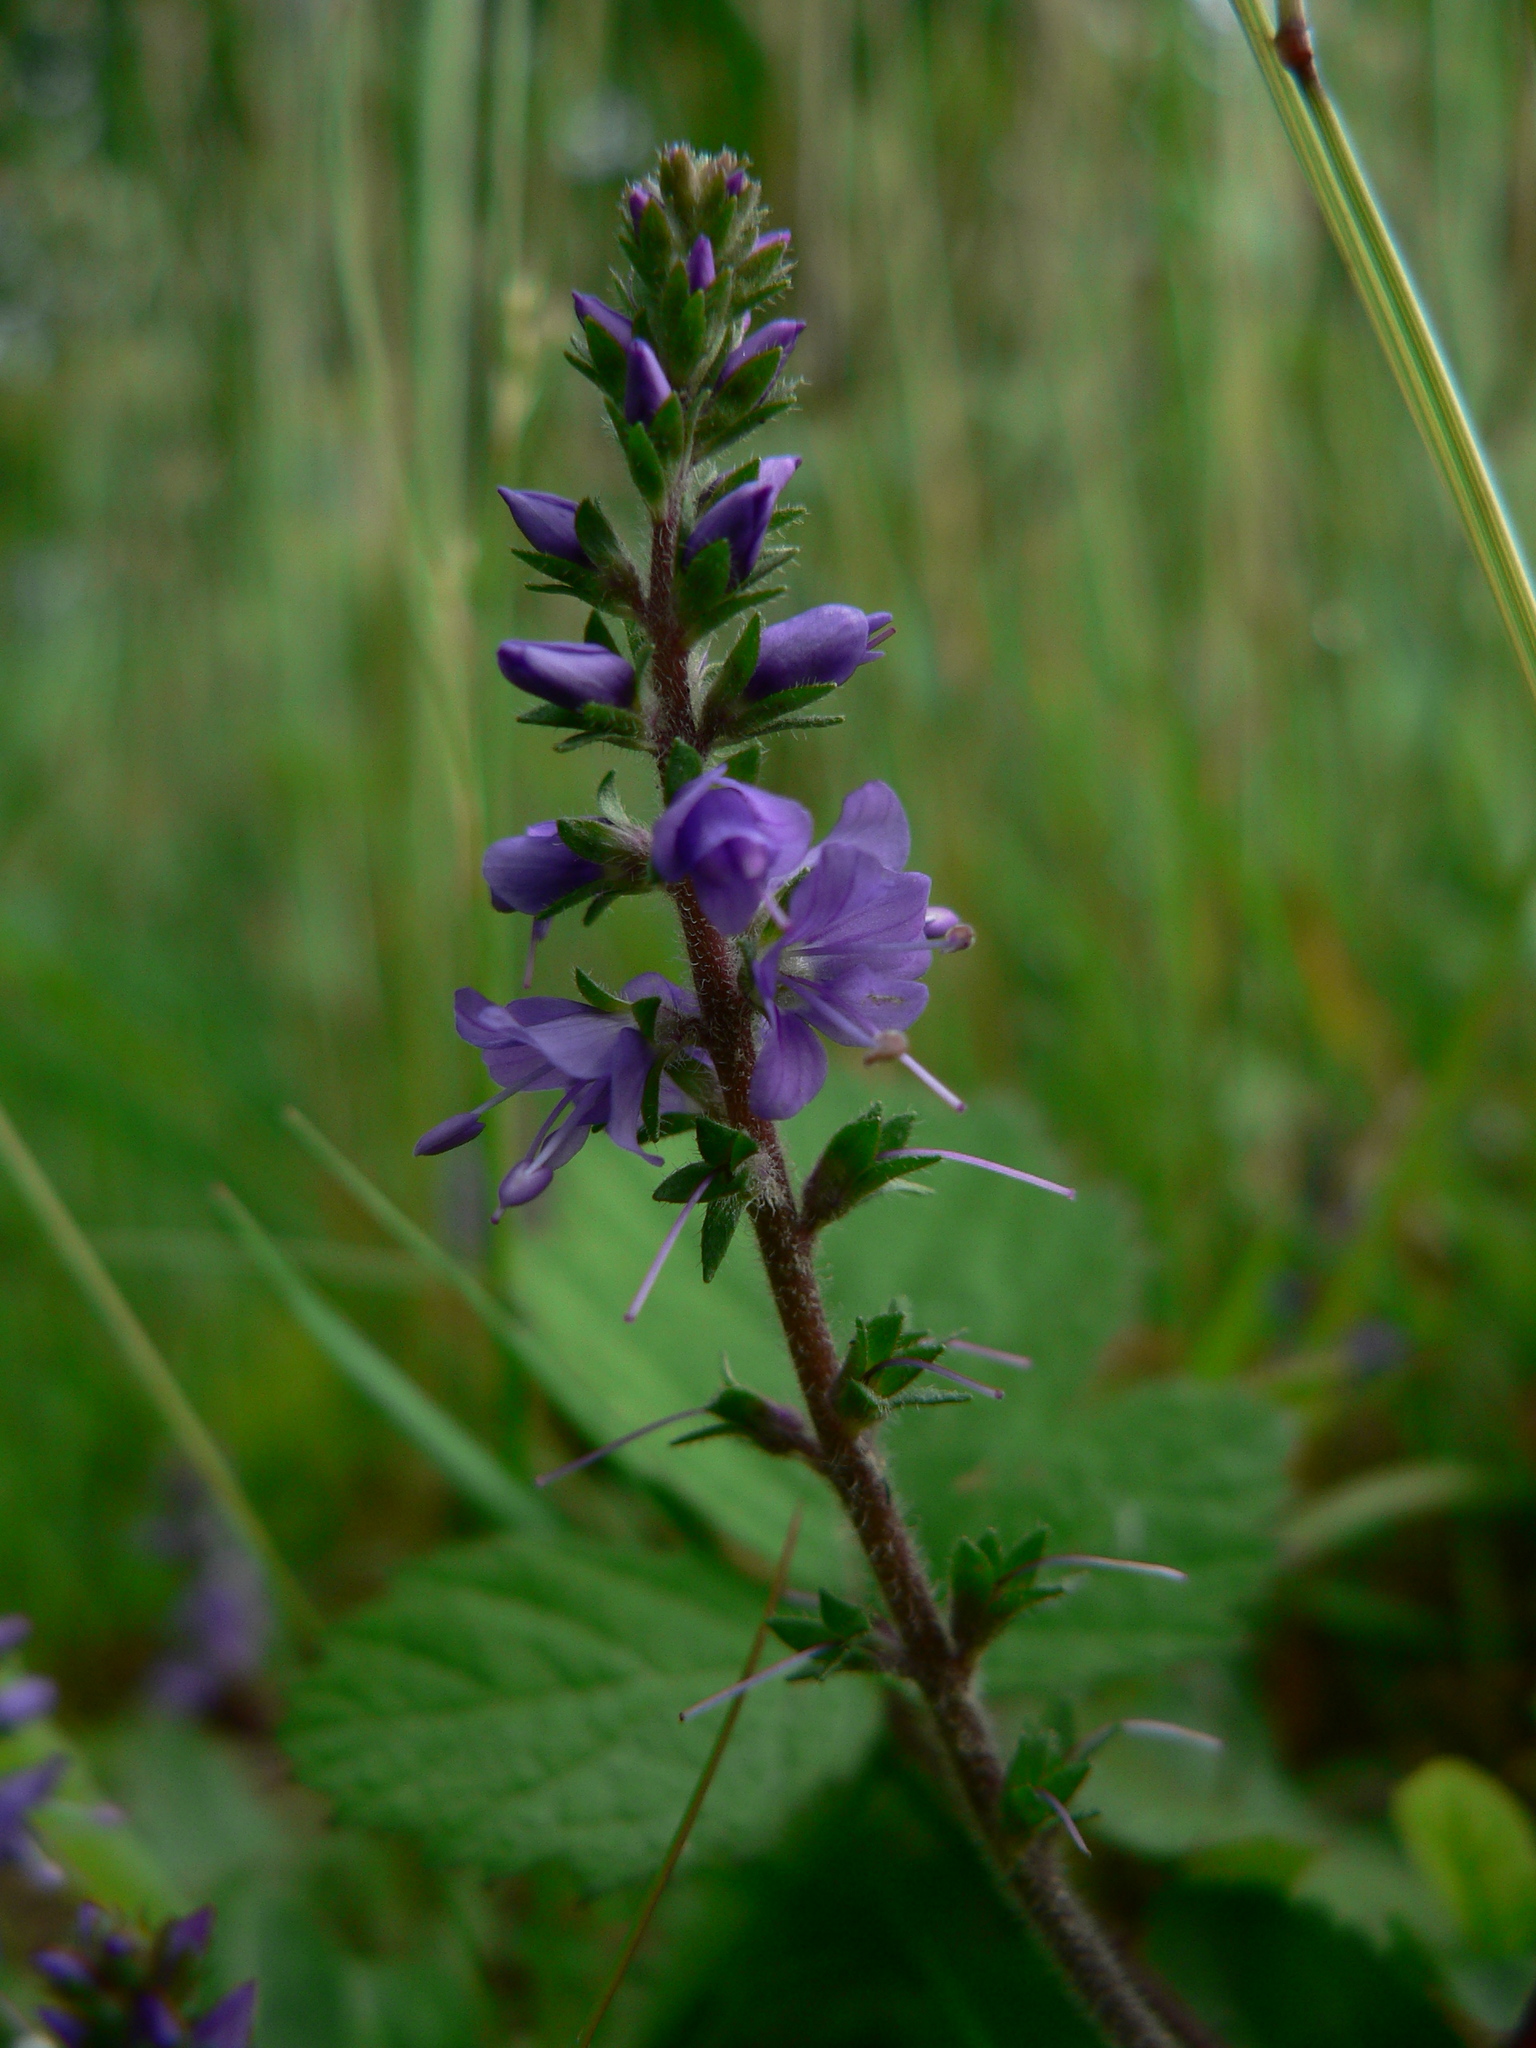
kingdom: Plantae
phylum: Tracheophyta
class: Magnoliopsida
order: Lamiales
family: Plantaginaceae
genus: Veronica
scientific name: Veronica officinalis
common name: Common speedwell
